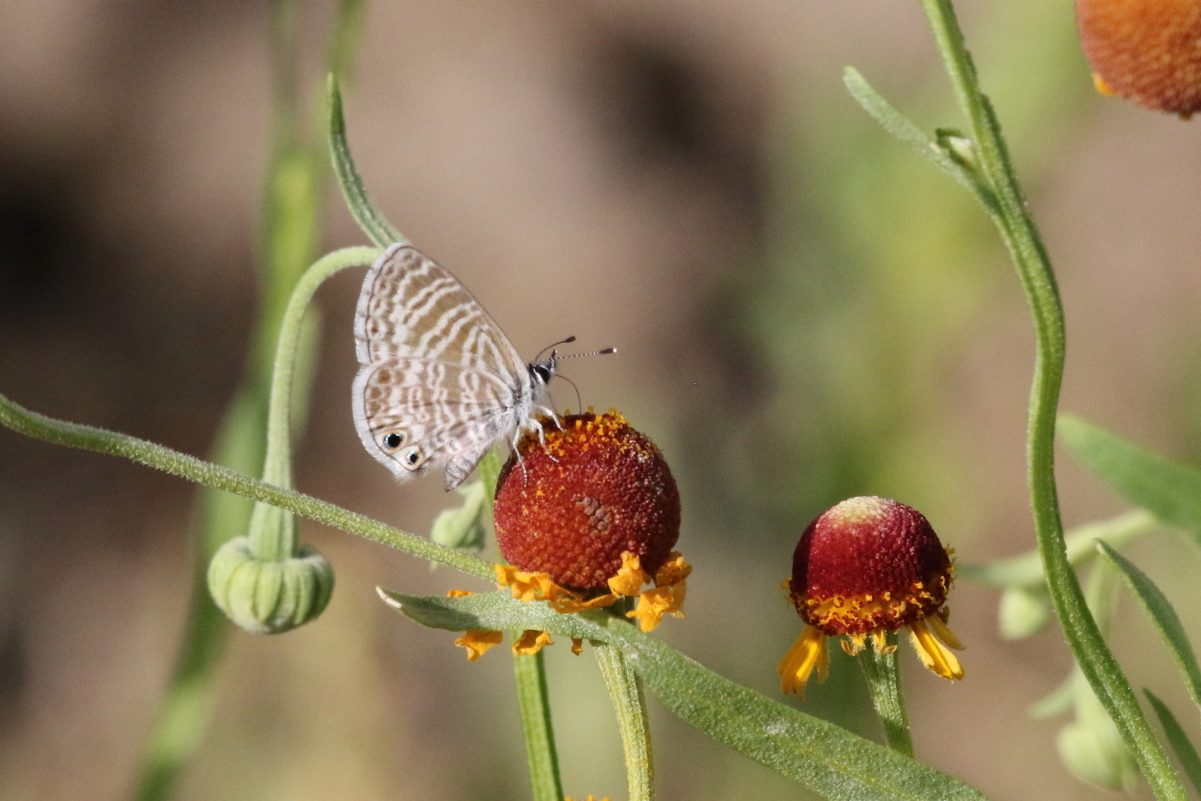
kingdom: Animalia
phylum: Arthropoda
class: Insecta
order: Lepidoptera
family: Lycaenidae
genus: Leptotes
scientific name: Leptotes marina
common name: Marine blue
